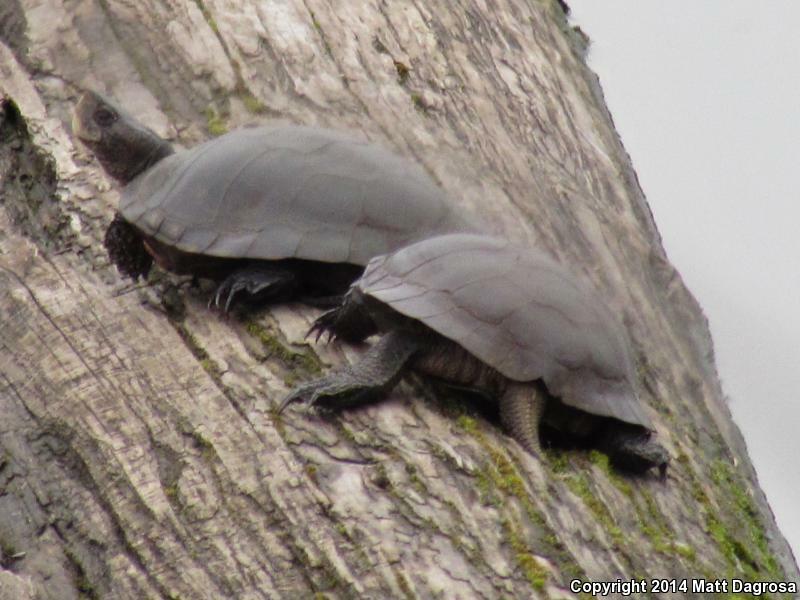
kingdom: Animalia
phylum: Chordata
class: Testudines
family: Emydidae
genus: Actinemys
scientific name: Actinemys marmorata
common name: Western pond turtle
